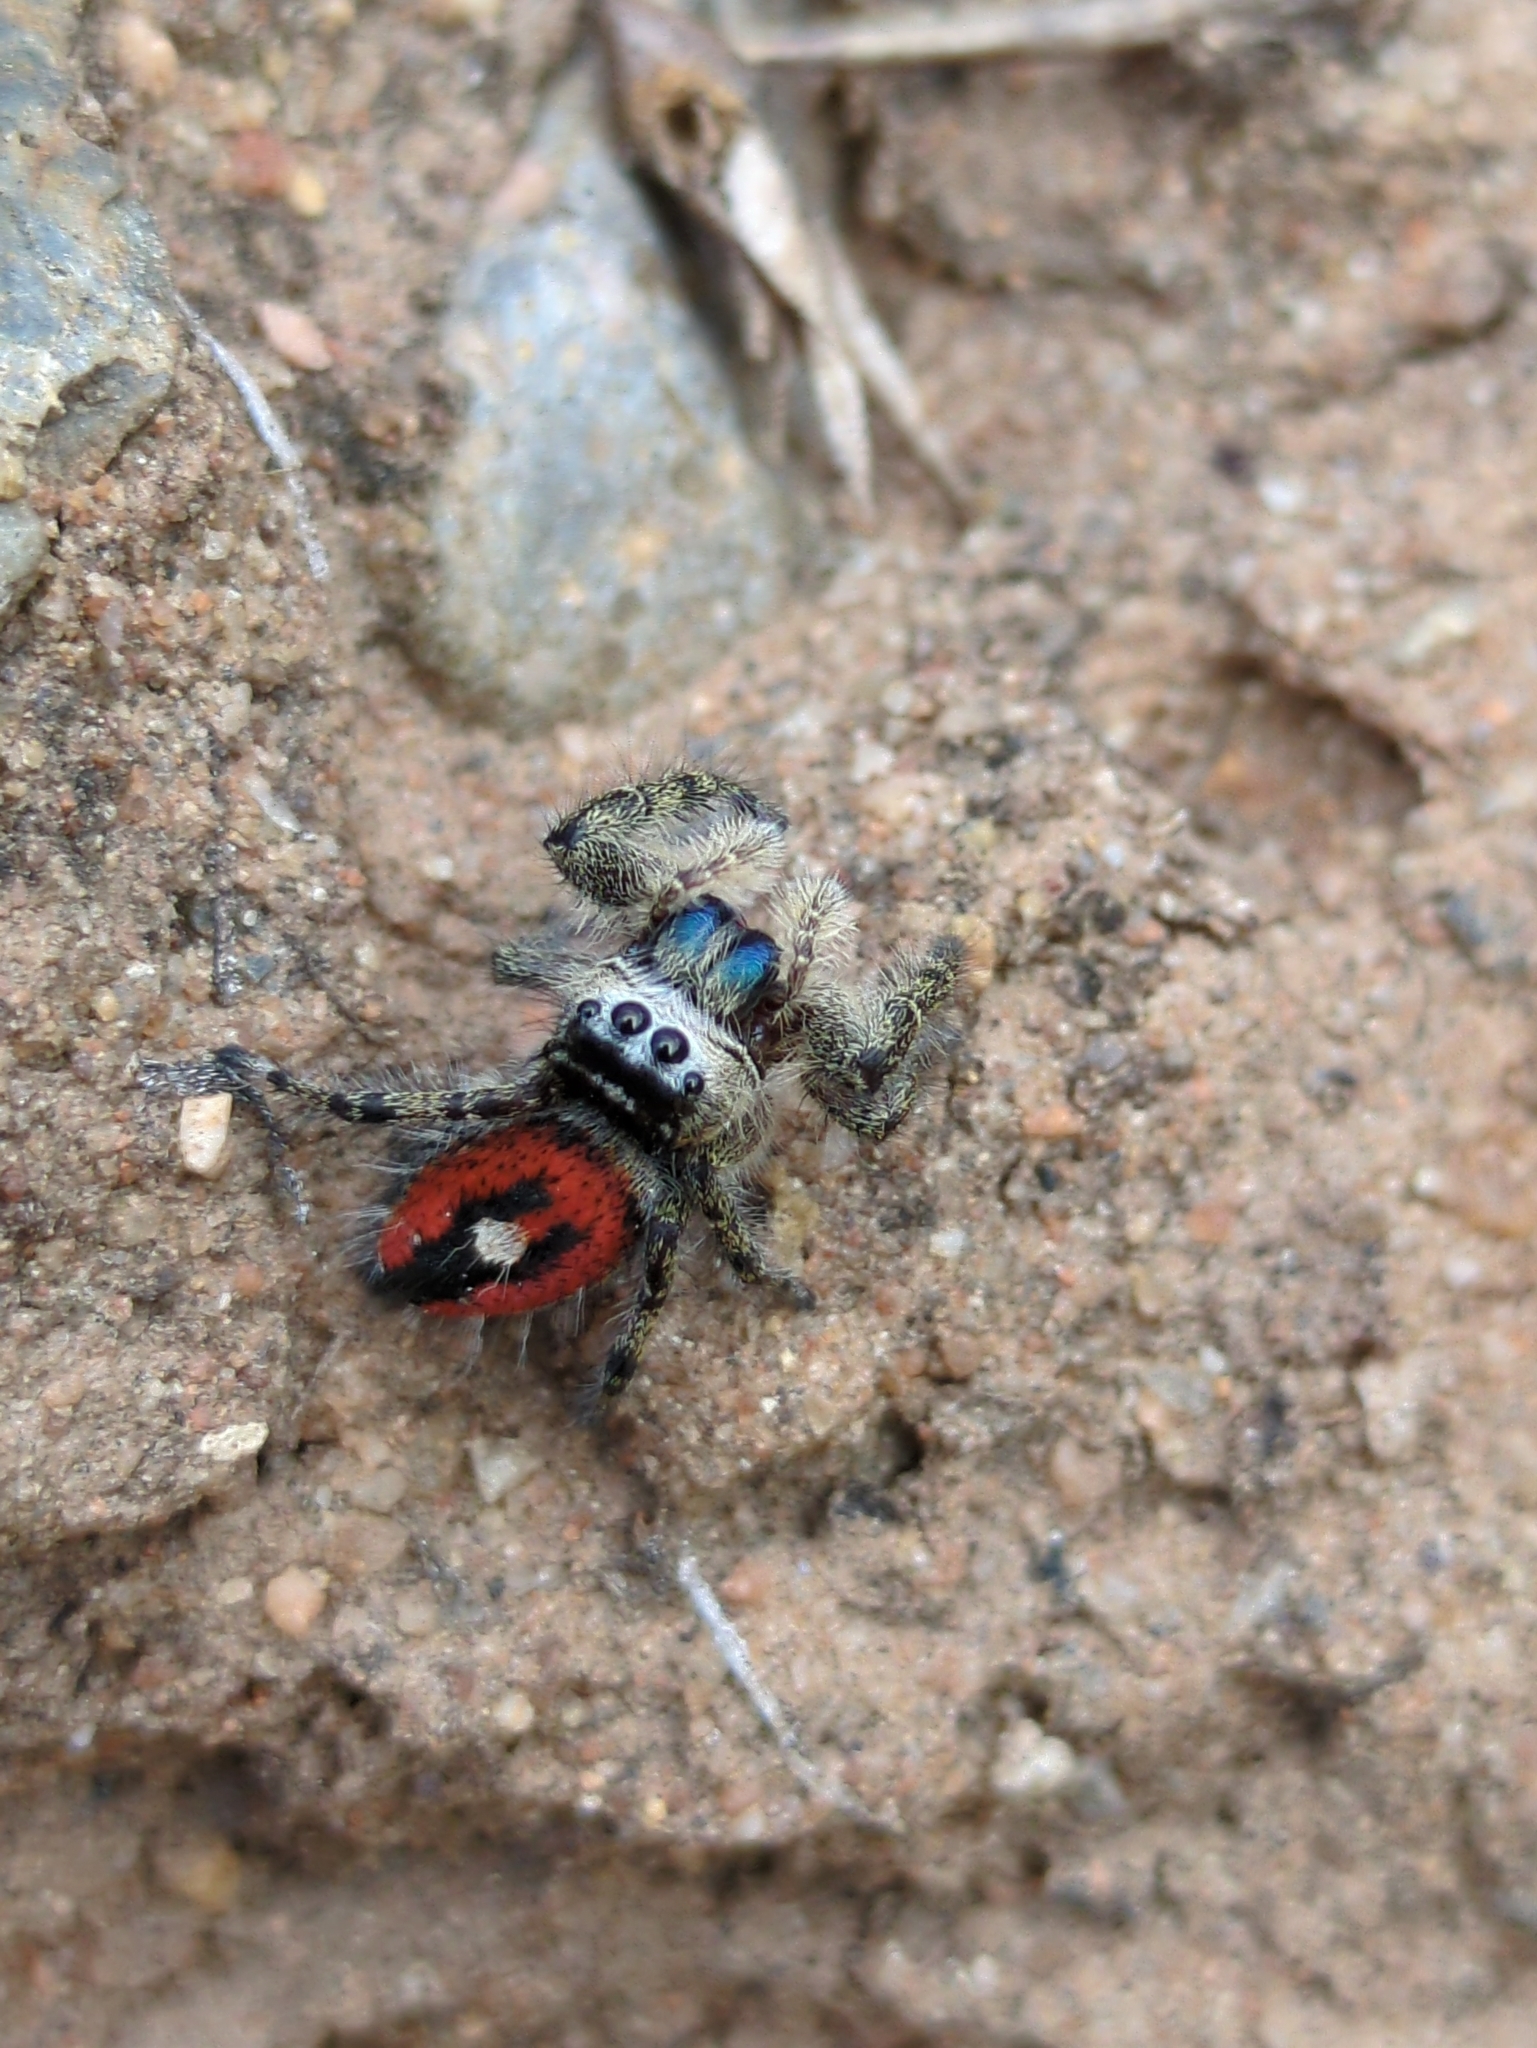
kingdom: Animalia
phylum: Arthropoda
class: Arachnida
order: Araneae
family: Salticidae
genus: Phidippus
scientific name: Phidippus phoenix
